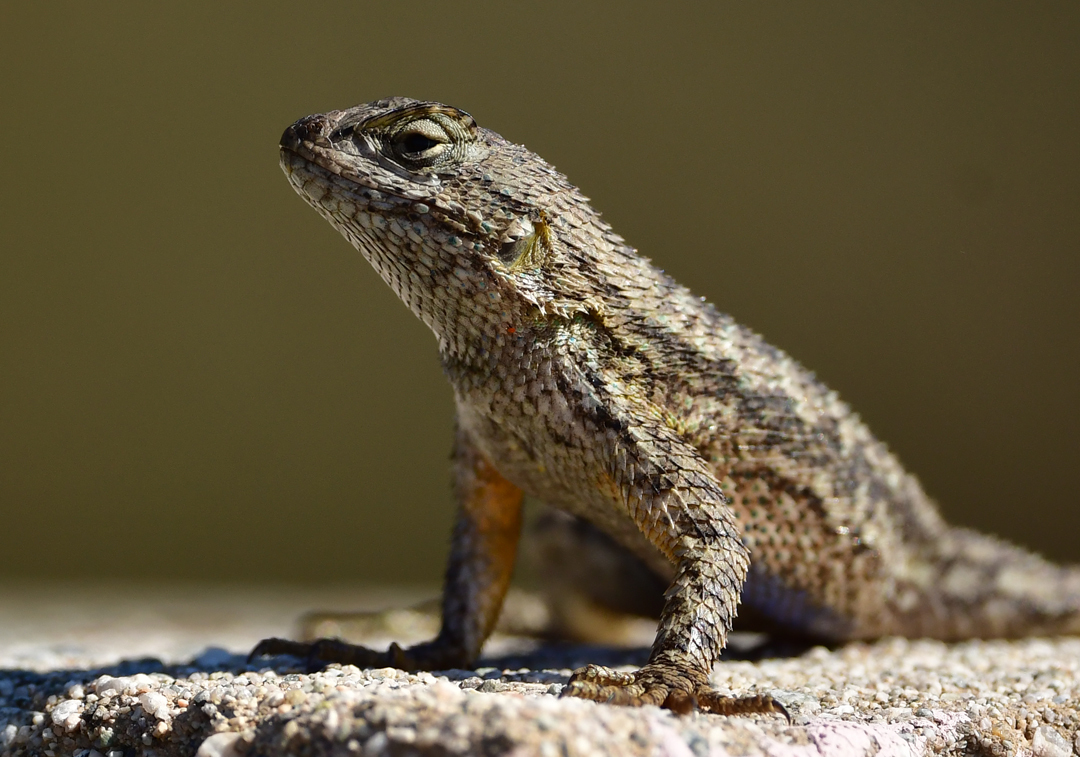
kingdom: Animalia
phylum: Chordata
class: Squamata
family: Phrynosomatidae
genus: Sceloporus
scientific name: Sceloporus occidentalis
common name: Western fence lizard
